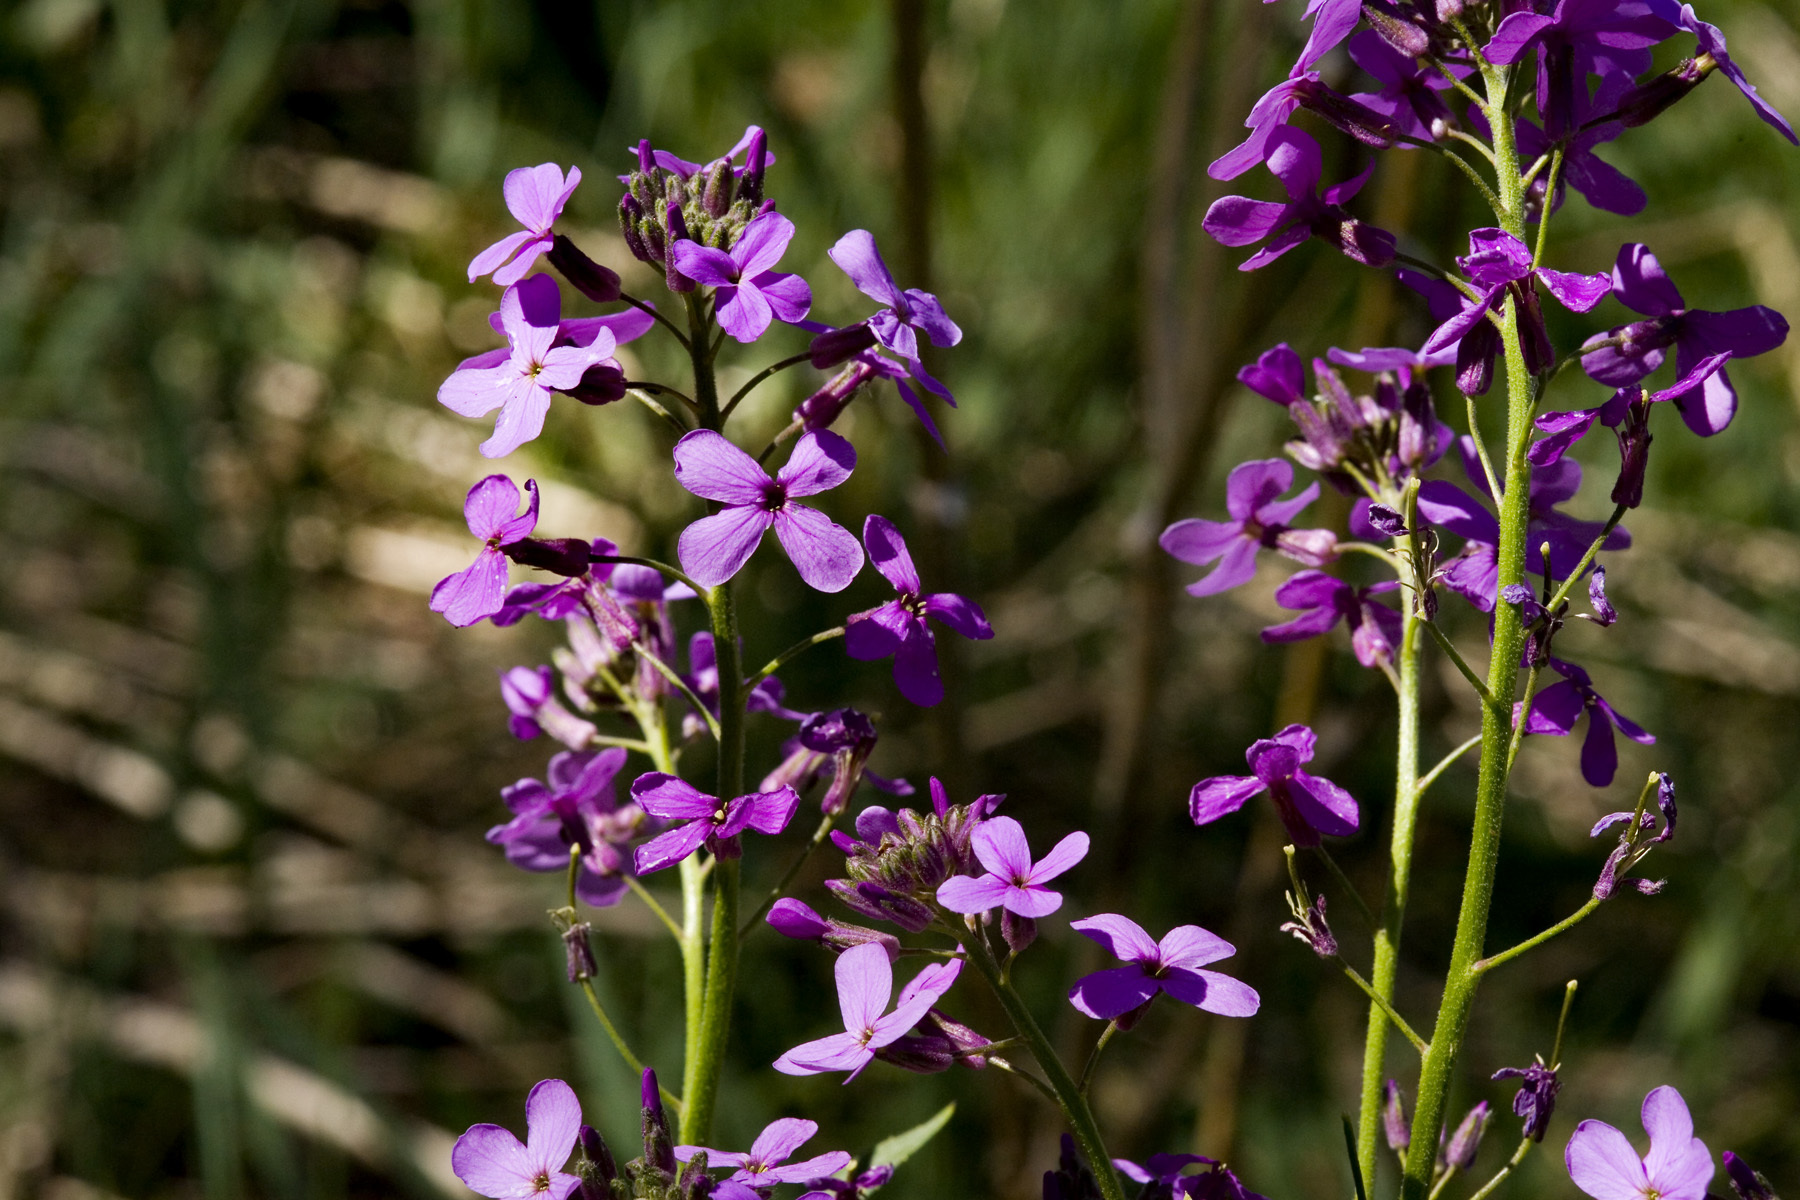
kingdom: Plantae
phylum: Tracheophyta
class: Magnoliopsida
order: Brassicales
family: Brassicaceae
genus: Hesperis
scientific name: Hesperis matronalis
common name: Dame's-violet
